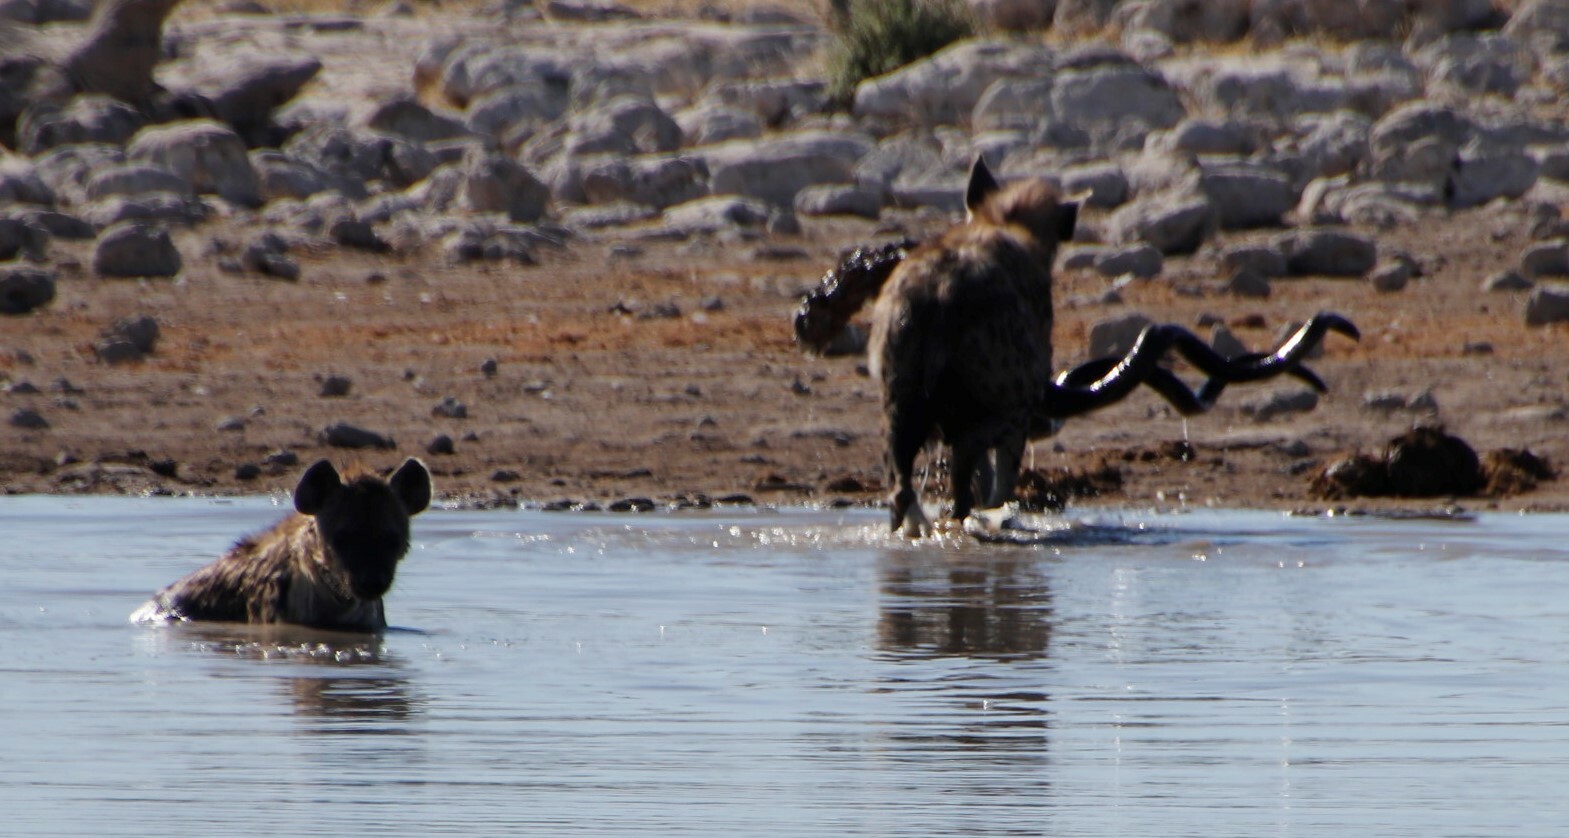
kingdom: Animalia
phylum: Chordata
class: Mammalia
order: Artiodactyla
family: Bovidae
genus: Tragelaphus
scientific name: Tragelaphus strepsiceros
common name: Greater kudu
